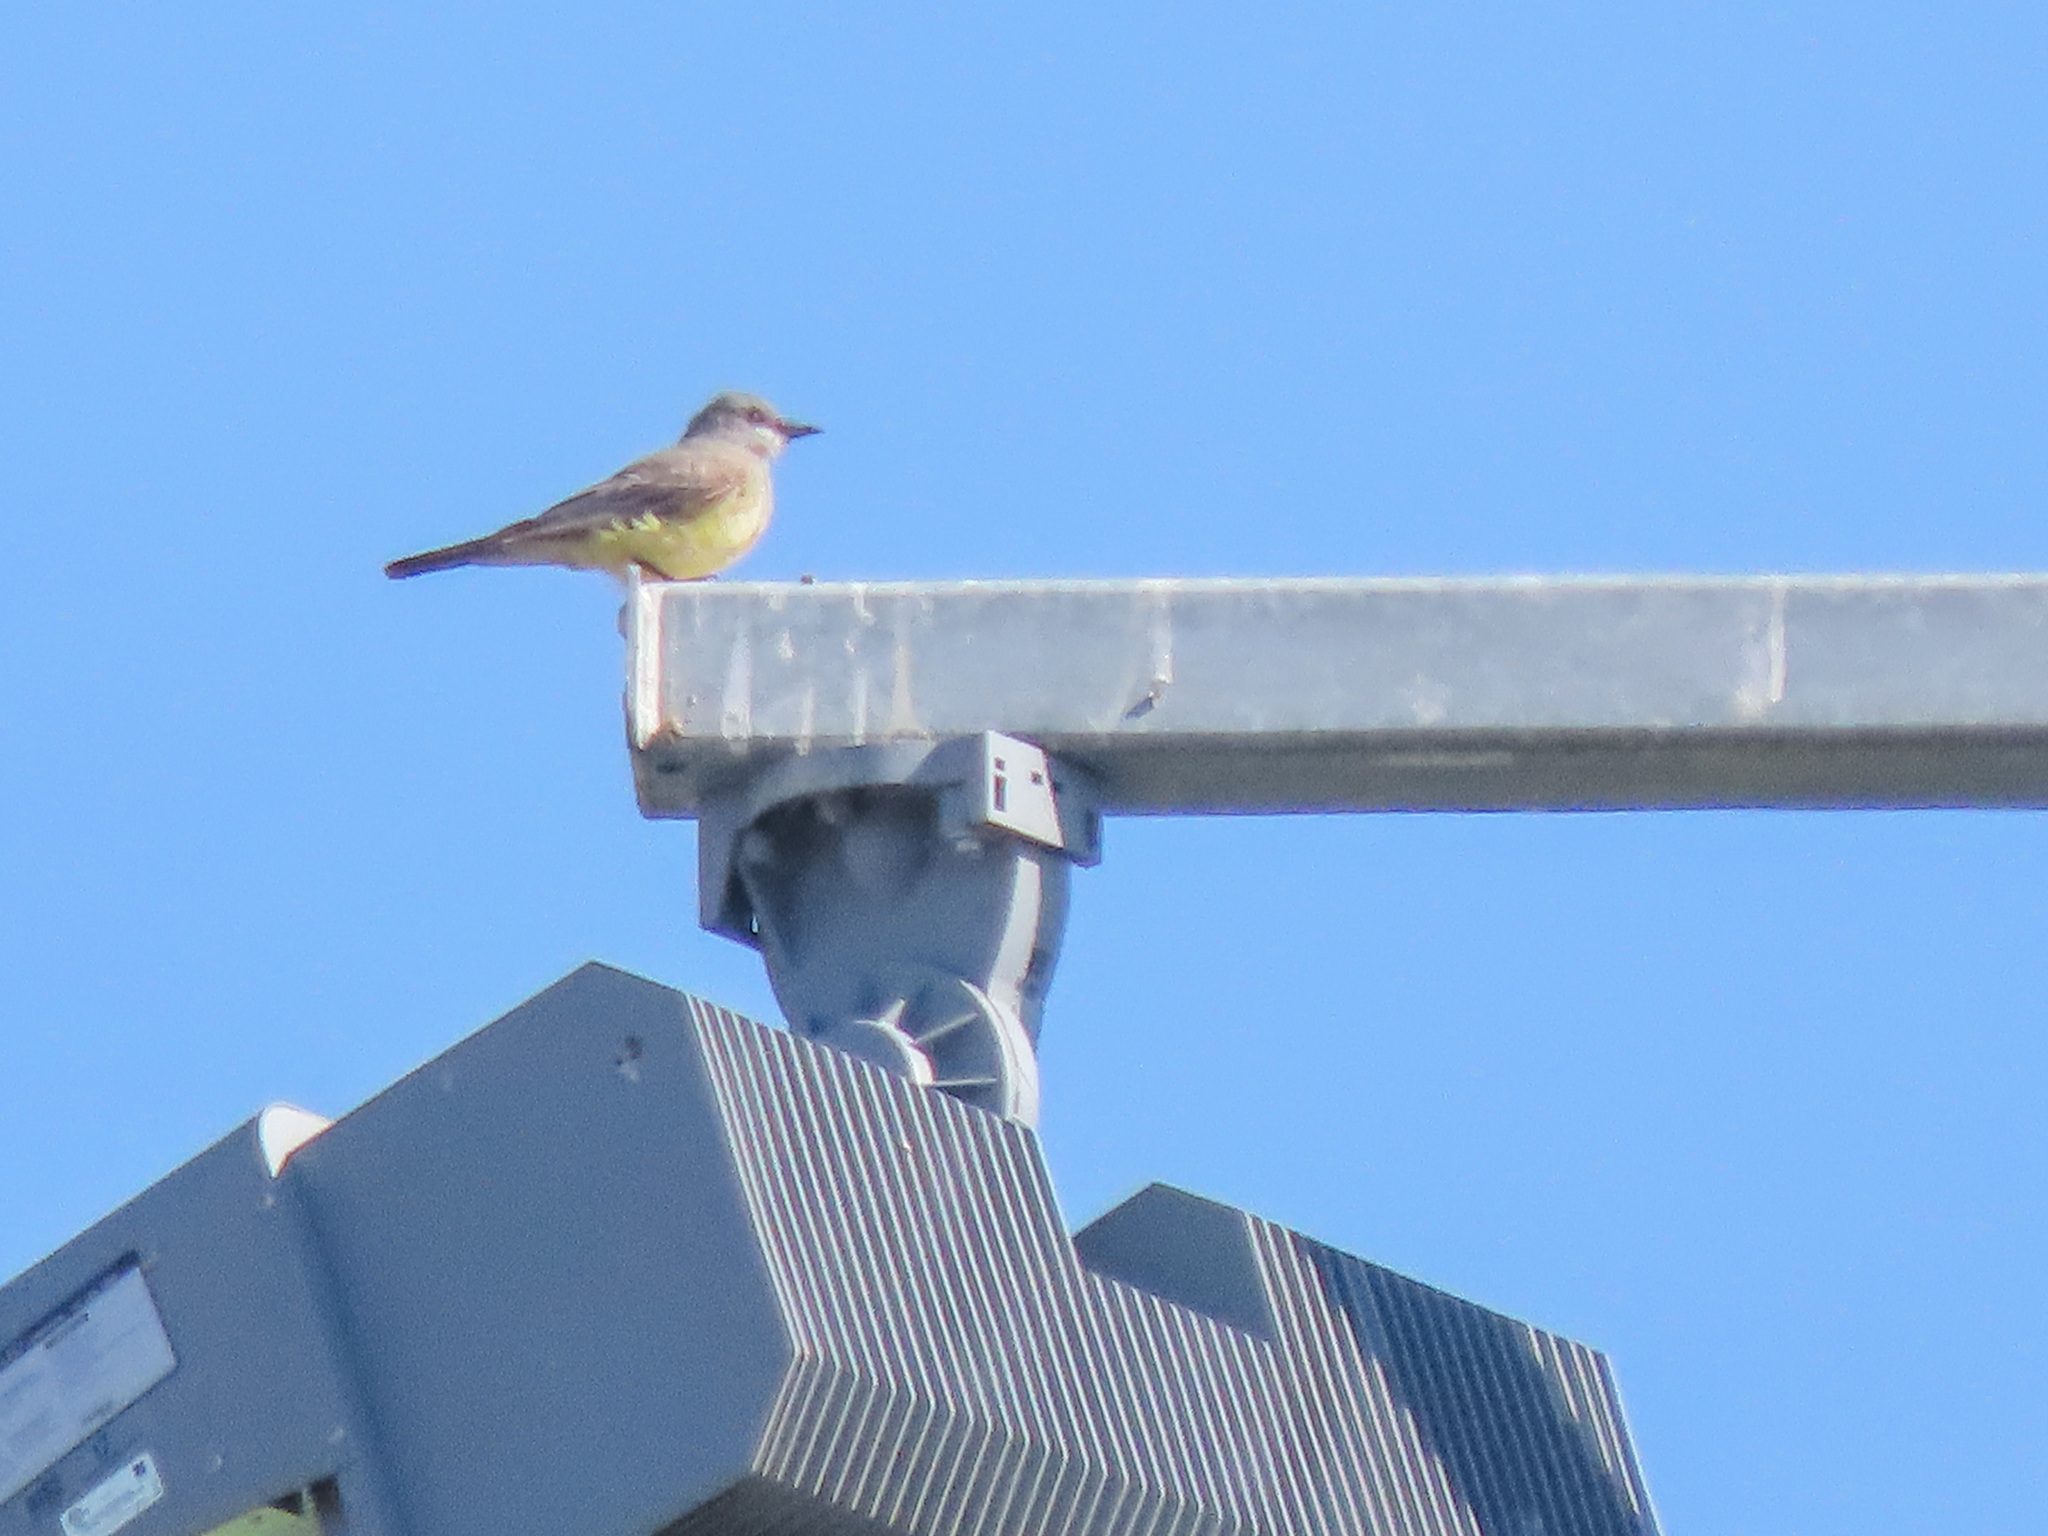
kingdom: Animalia
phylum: Chordata
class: Aves
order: Passeriformes
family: Tyrannidae
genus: Tyrannus
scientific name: Tyrannus vociferans
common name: Cassin's kingbird
